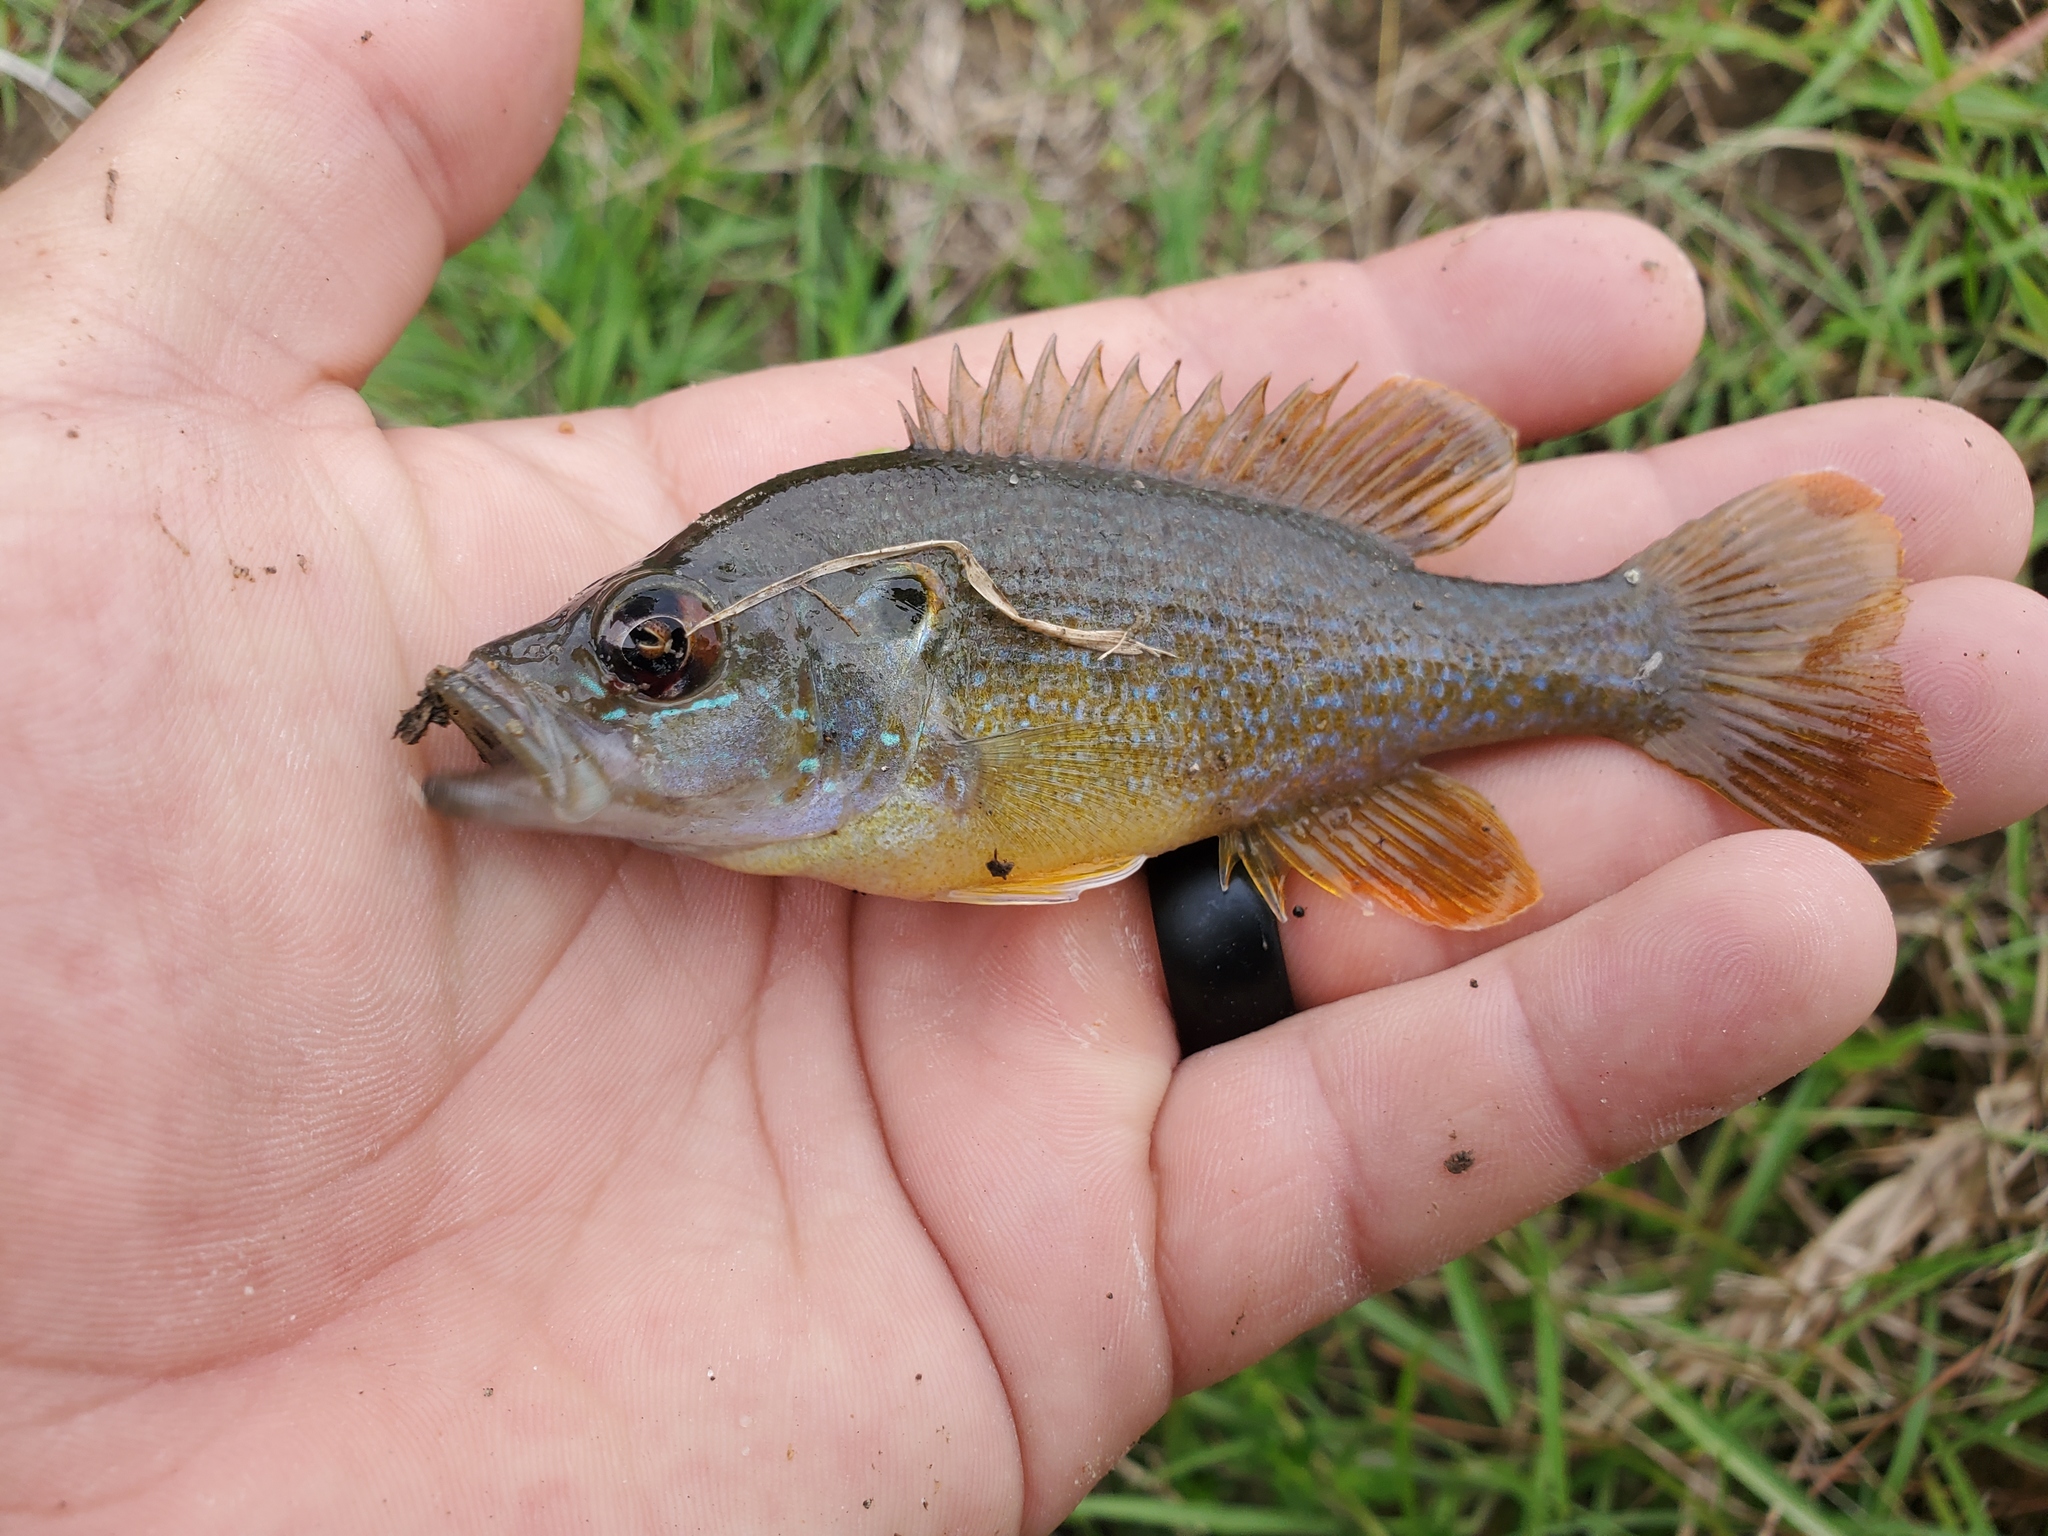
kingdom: Animalia
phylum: Chordata
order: Perciformes
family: Centrarchidae
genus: Lepomis
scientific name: Lepomis cyanellus
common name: Green sunfish
